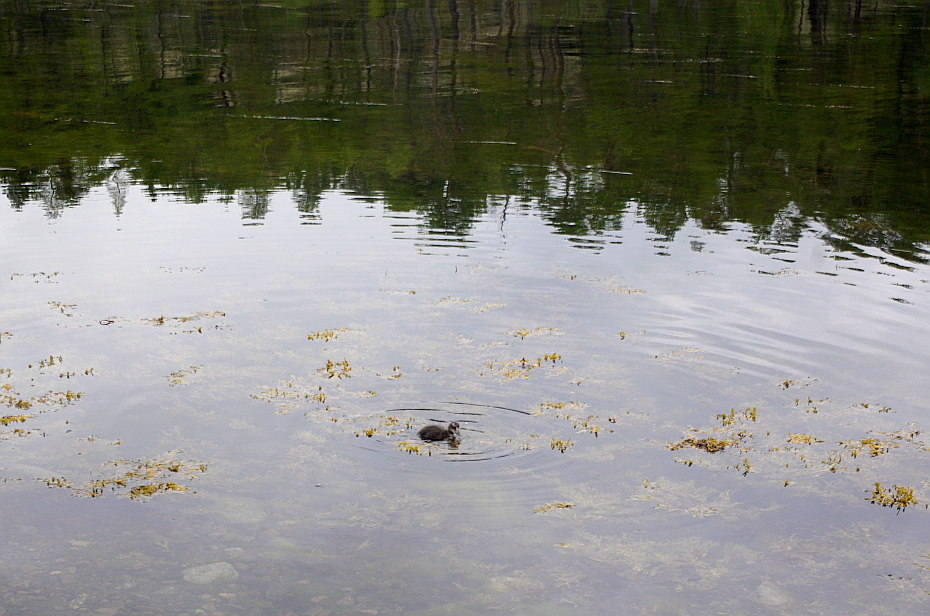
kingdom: Animalia
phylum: Chordata
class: Aves
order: Anseriformes
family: Anatidae
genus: Somateria
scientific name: Somateria mollissima
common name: Common eider
